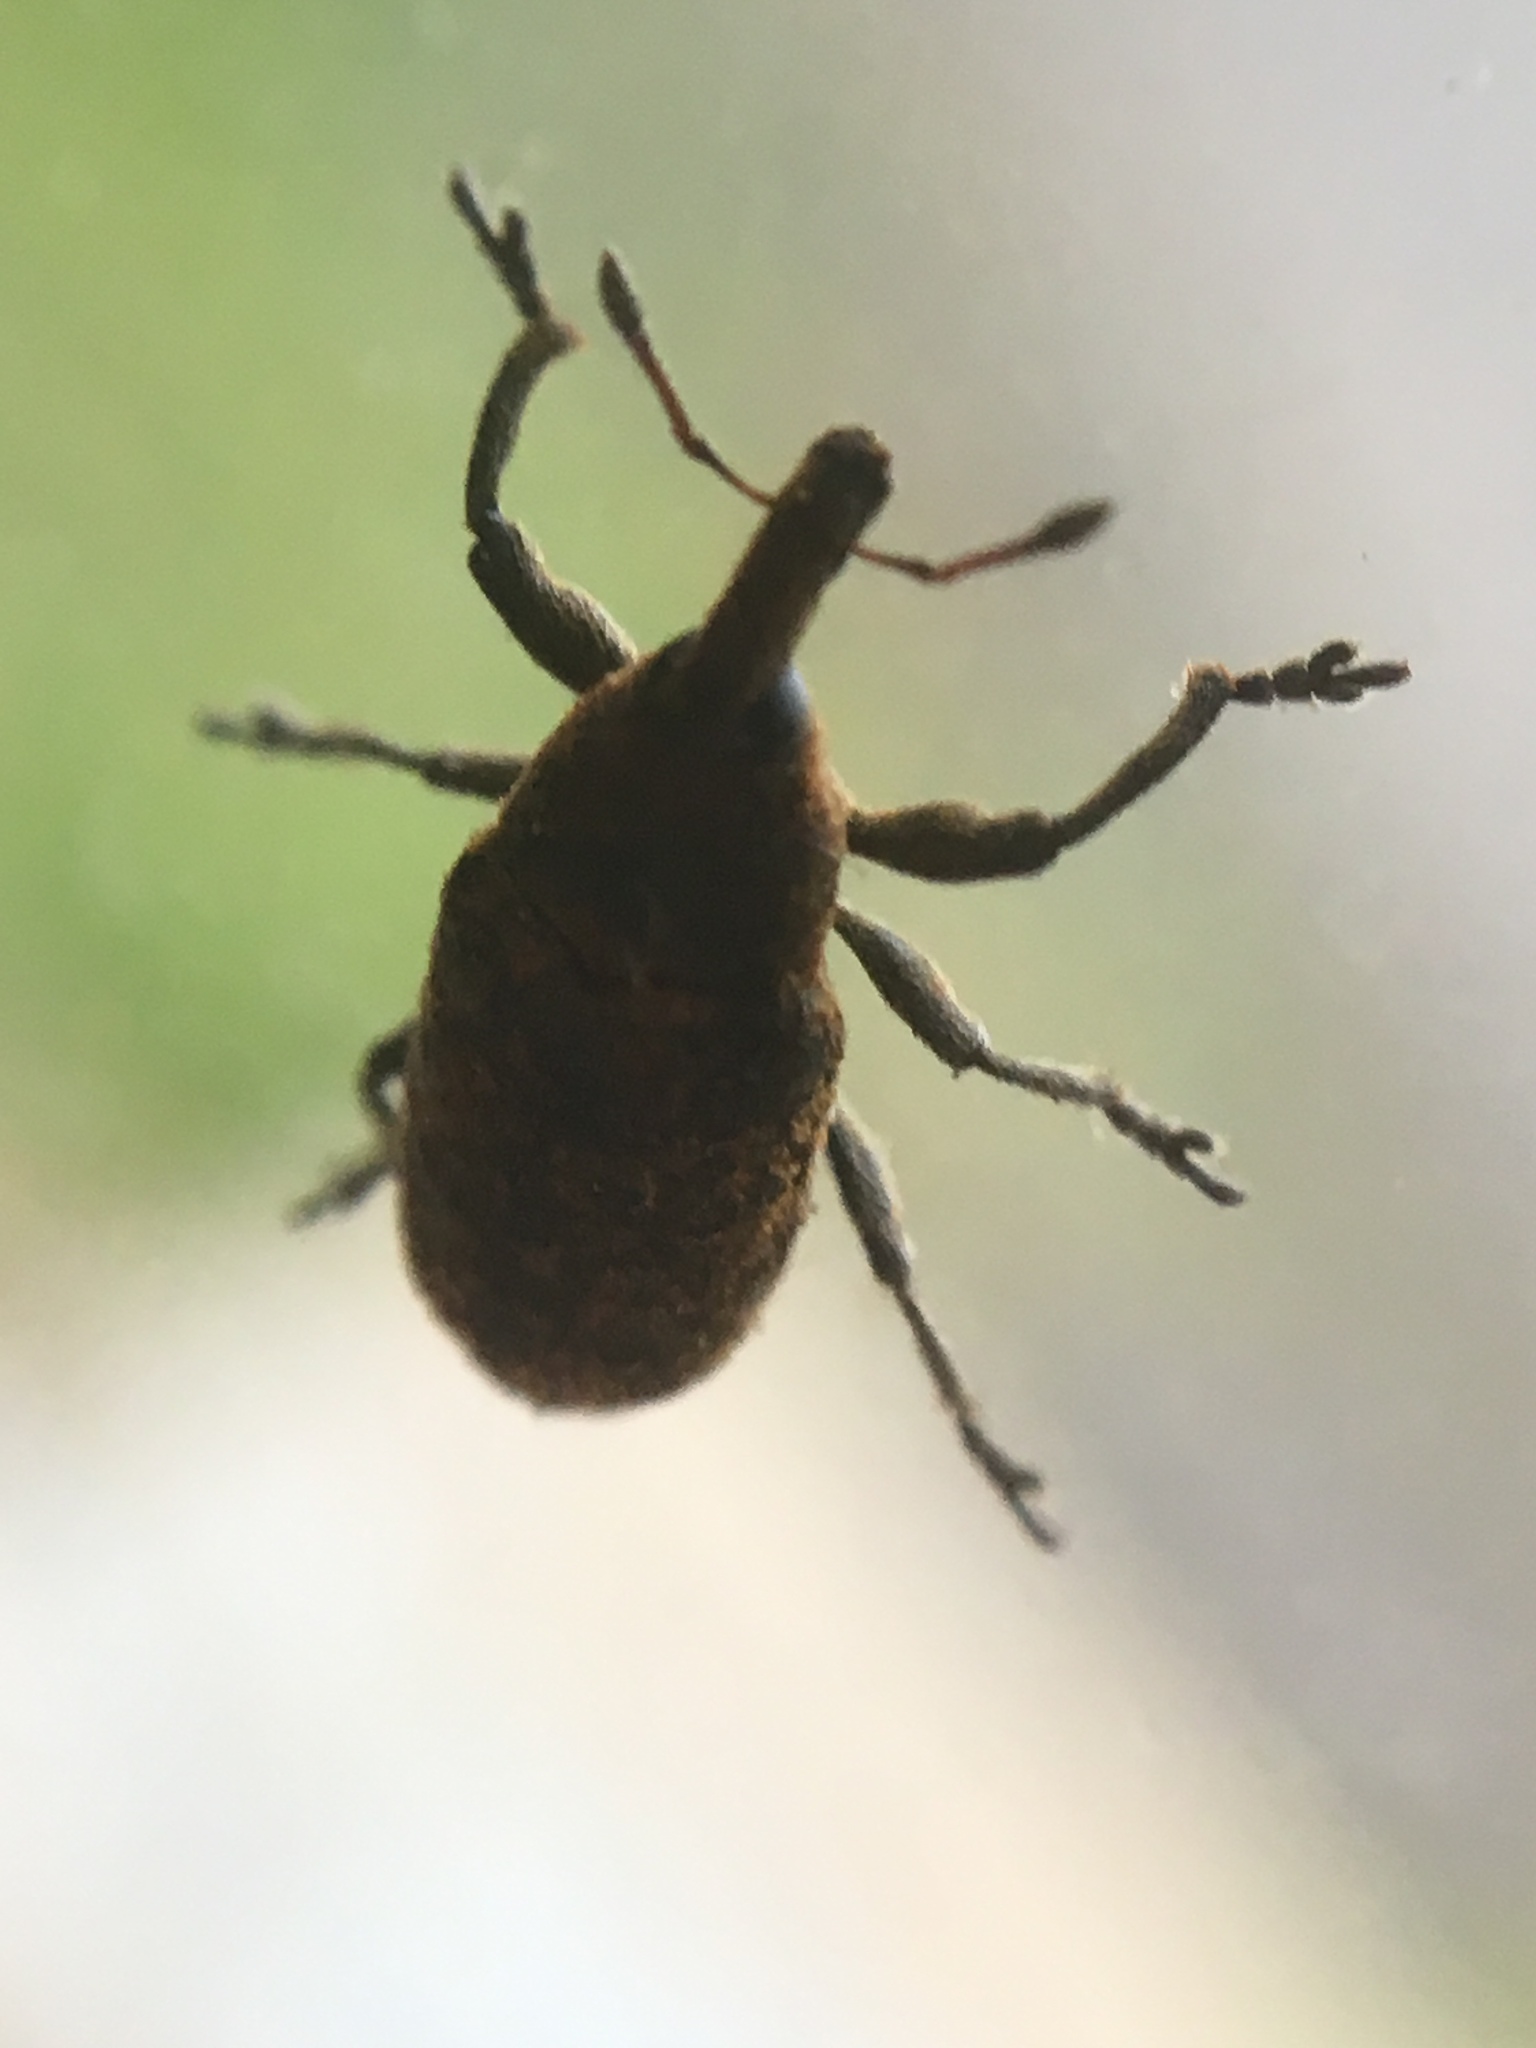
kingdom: Animalia
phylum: Arthropoda
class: Insecta
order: Coleoptera
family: Curculionidae
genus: Larinus
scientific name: Larinus carlinae
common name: Weevil
